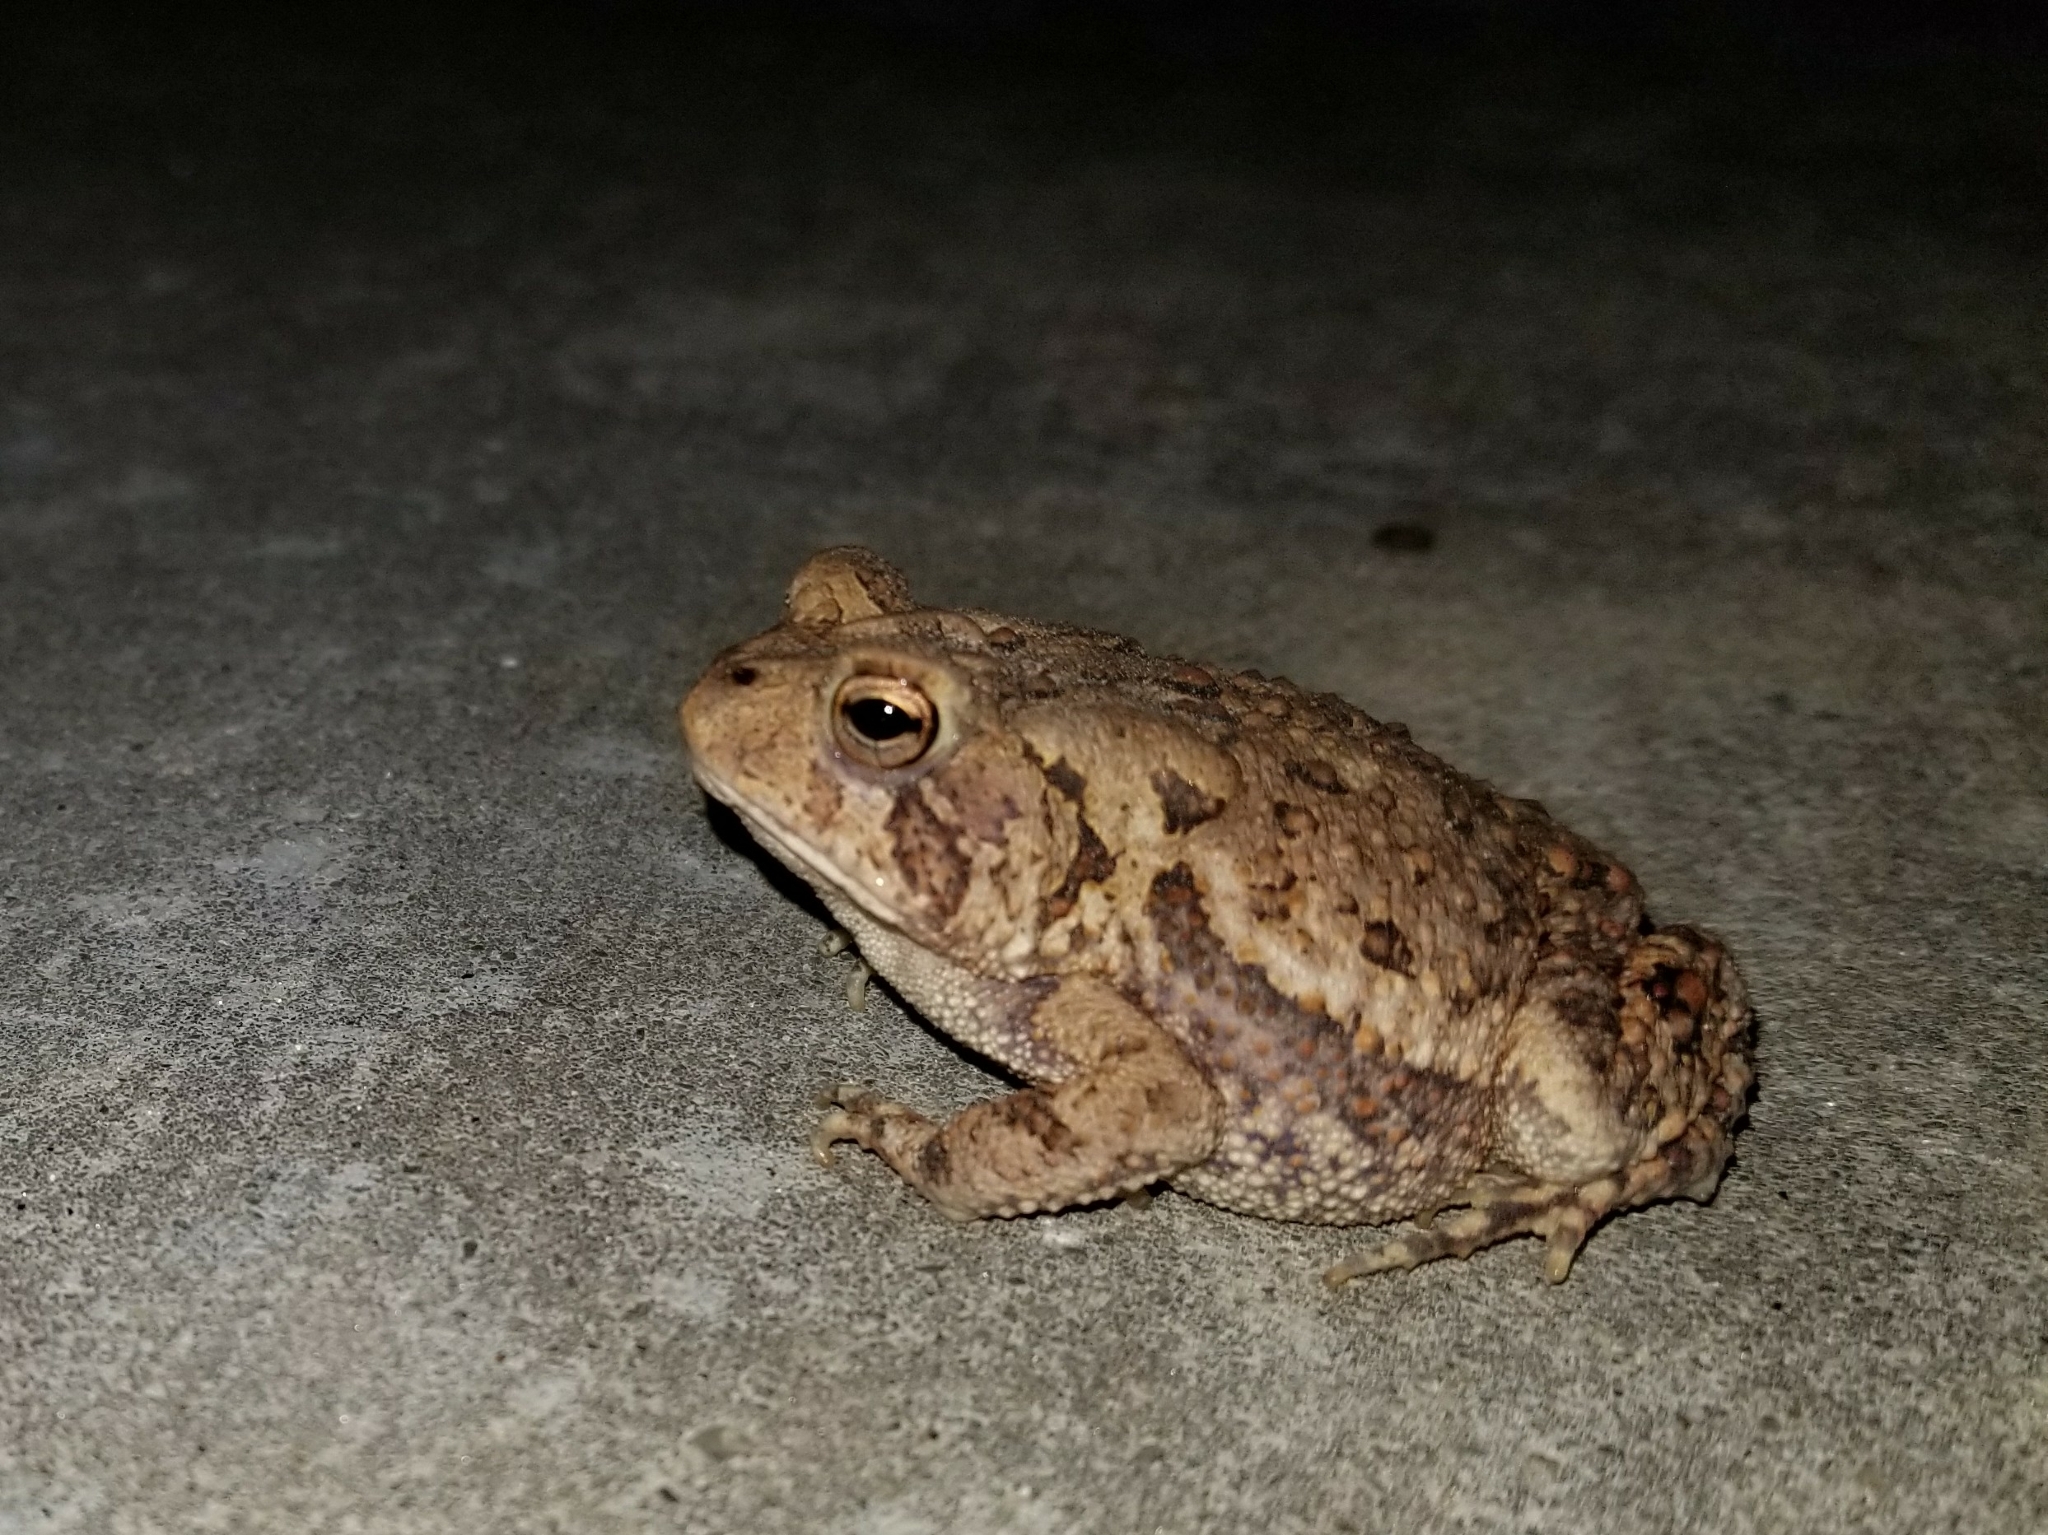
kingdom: Animalia
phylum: Chordata
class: Amphibia
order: Anura
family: Bufonidae
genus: Anaxyrus
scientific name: Anaxyrus terrestris
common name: Southern toad
